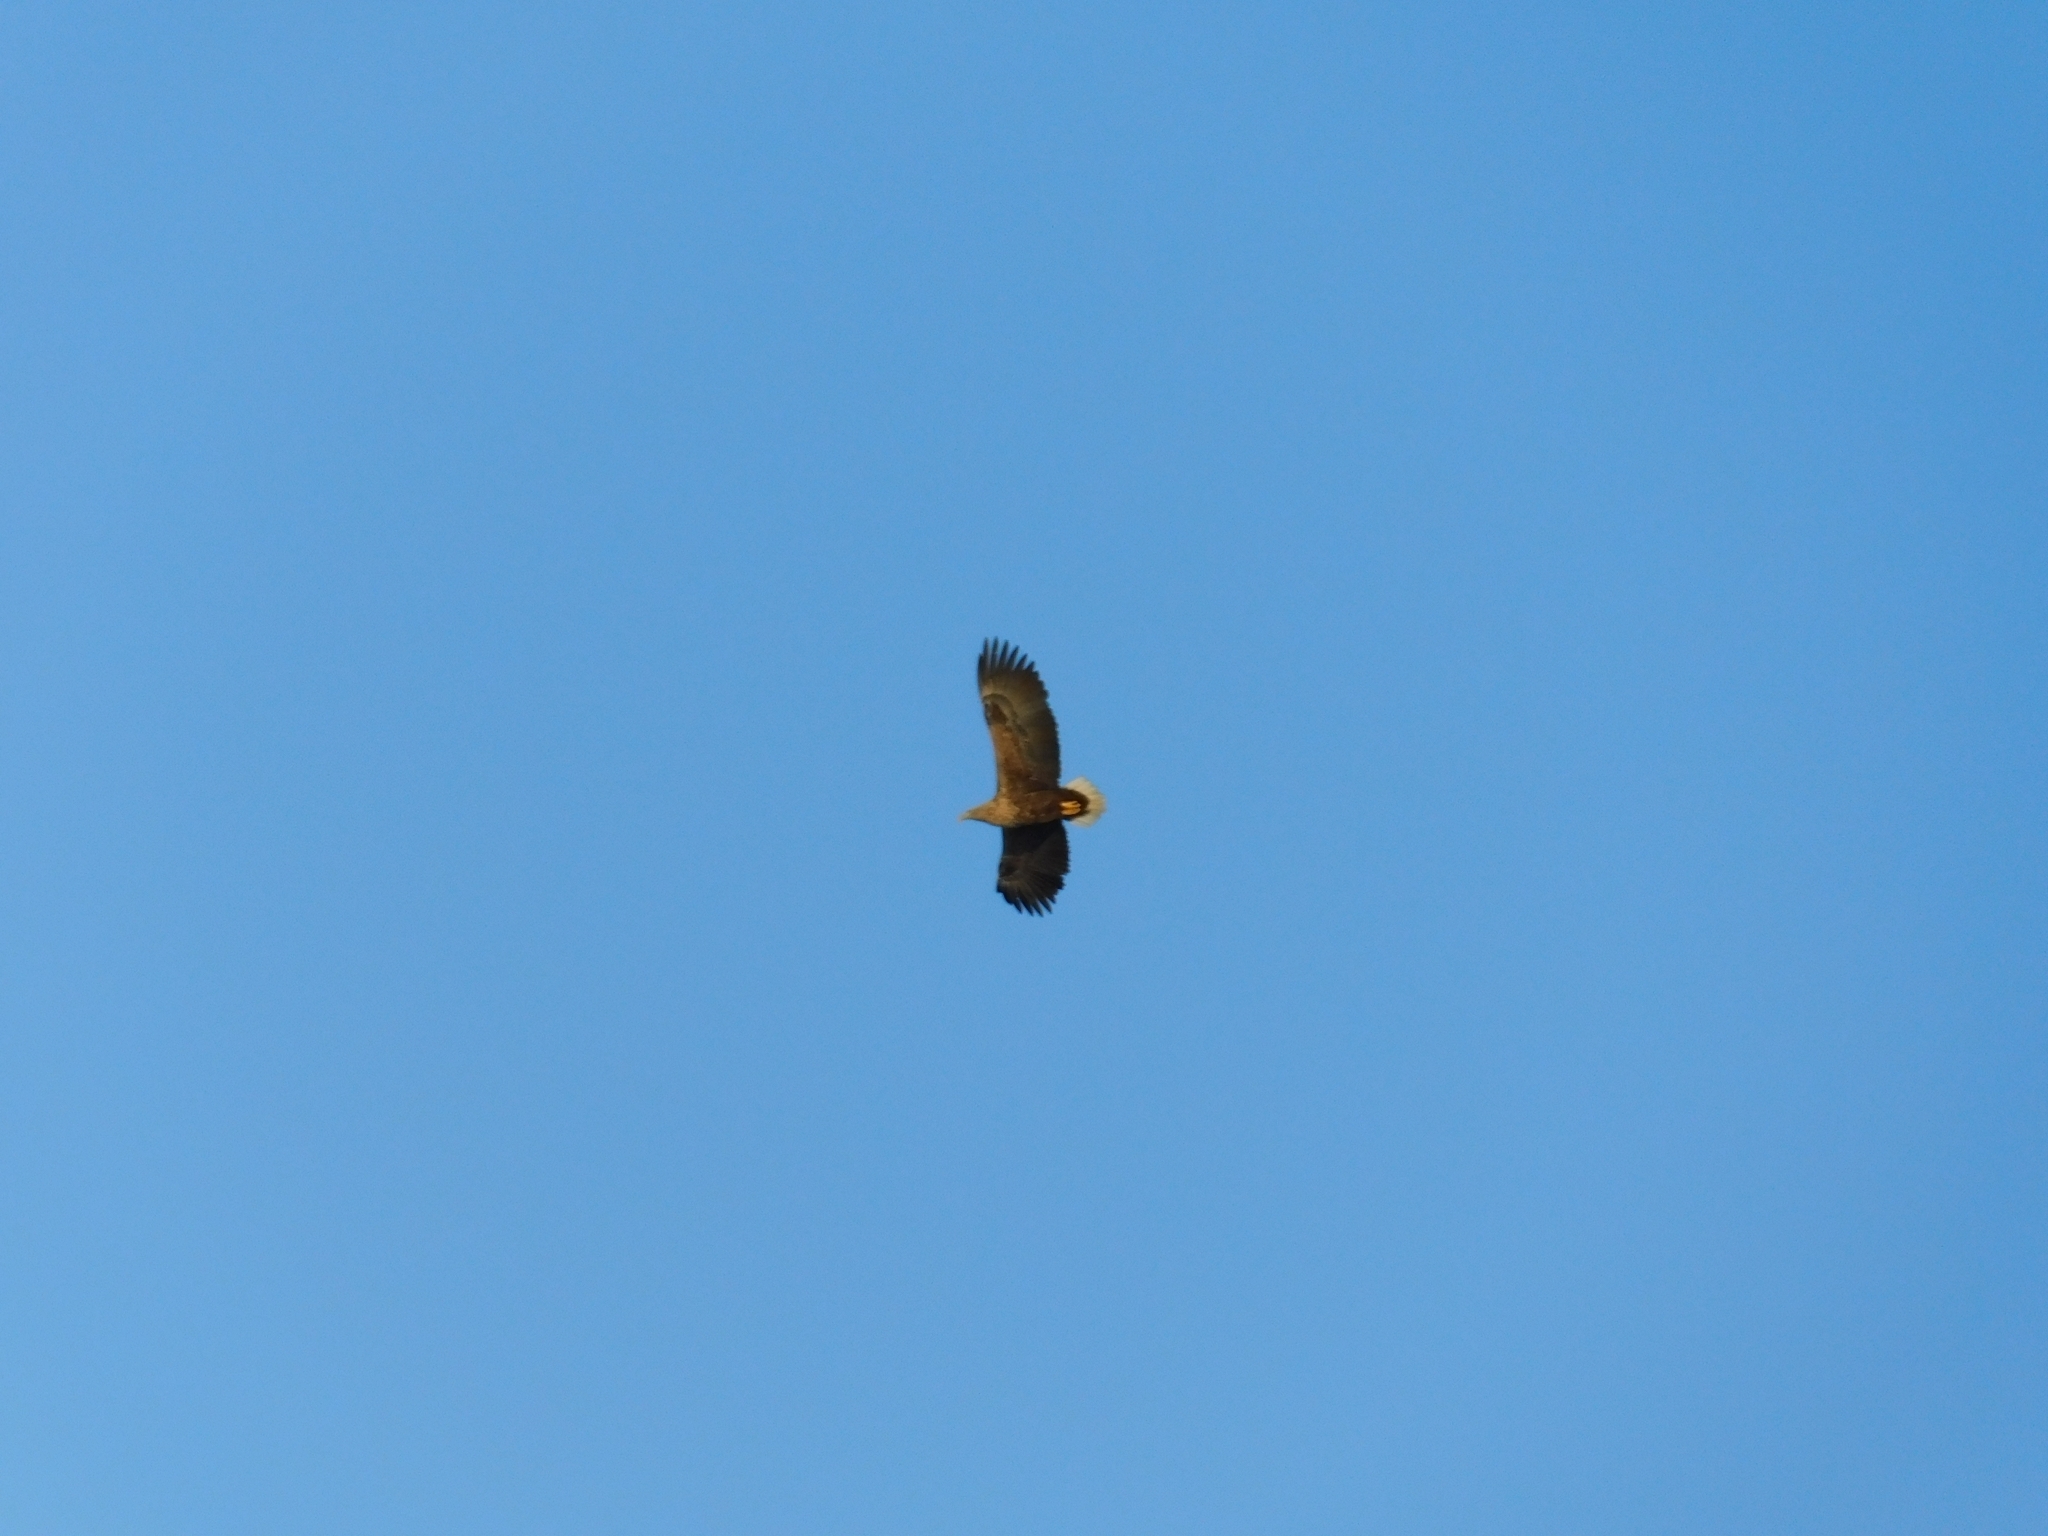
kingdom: Animalia
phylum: Chordata
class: Aves
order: Accipitriformes
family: Accipitridae
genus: Haliaeetus
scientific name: Haliaeetus albicilla
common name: White-tailed eagle
